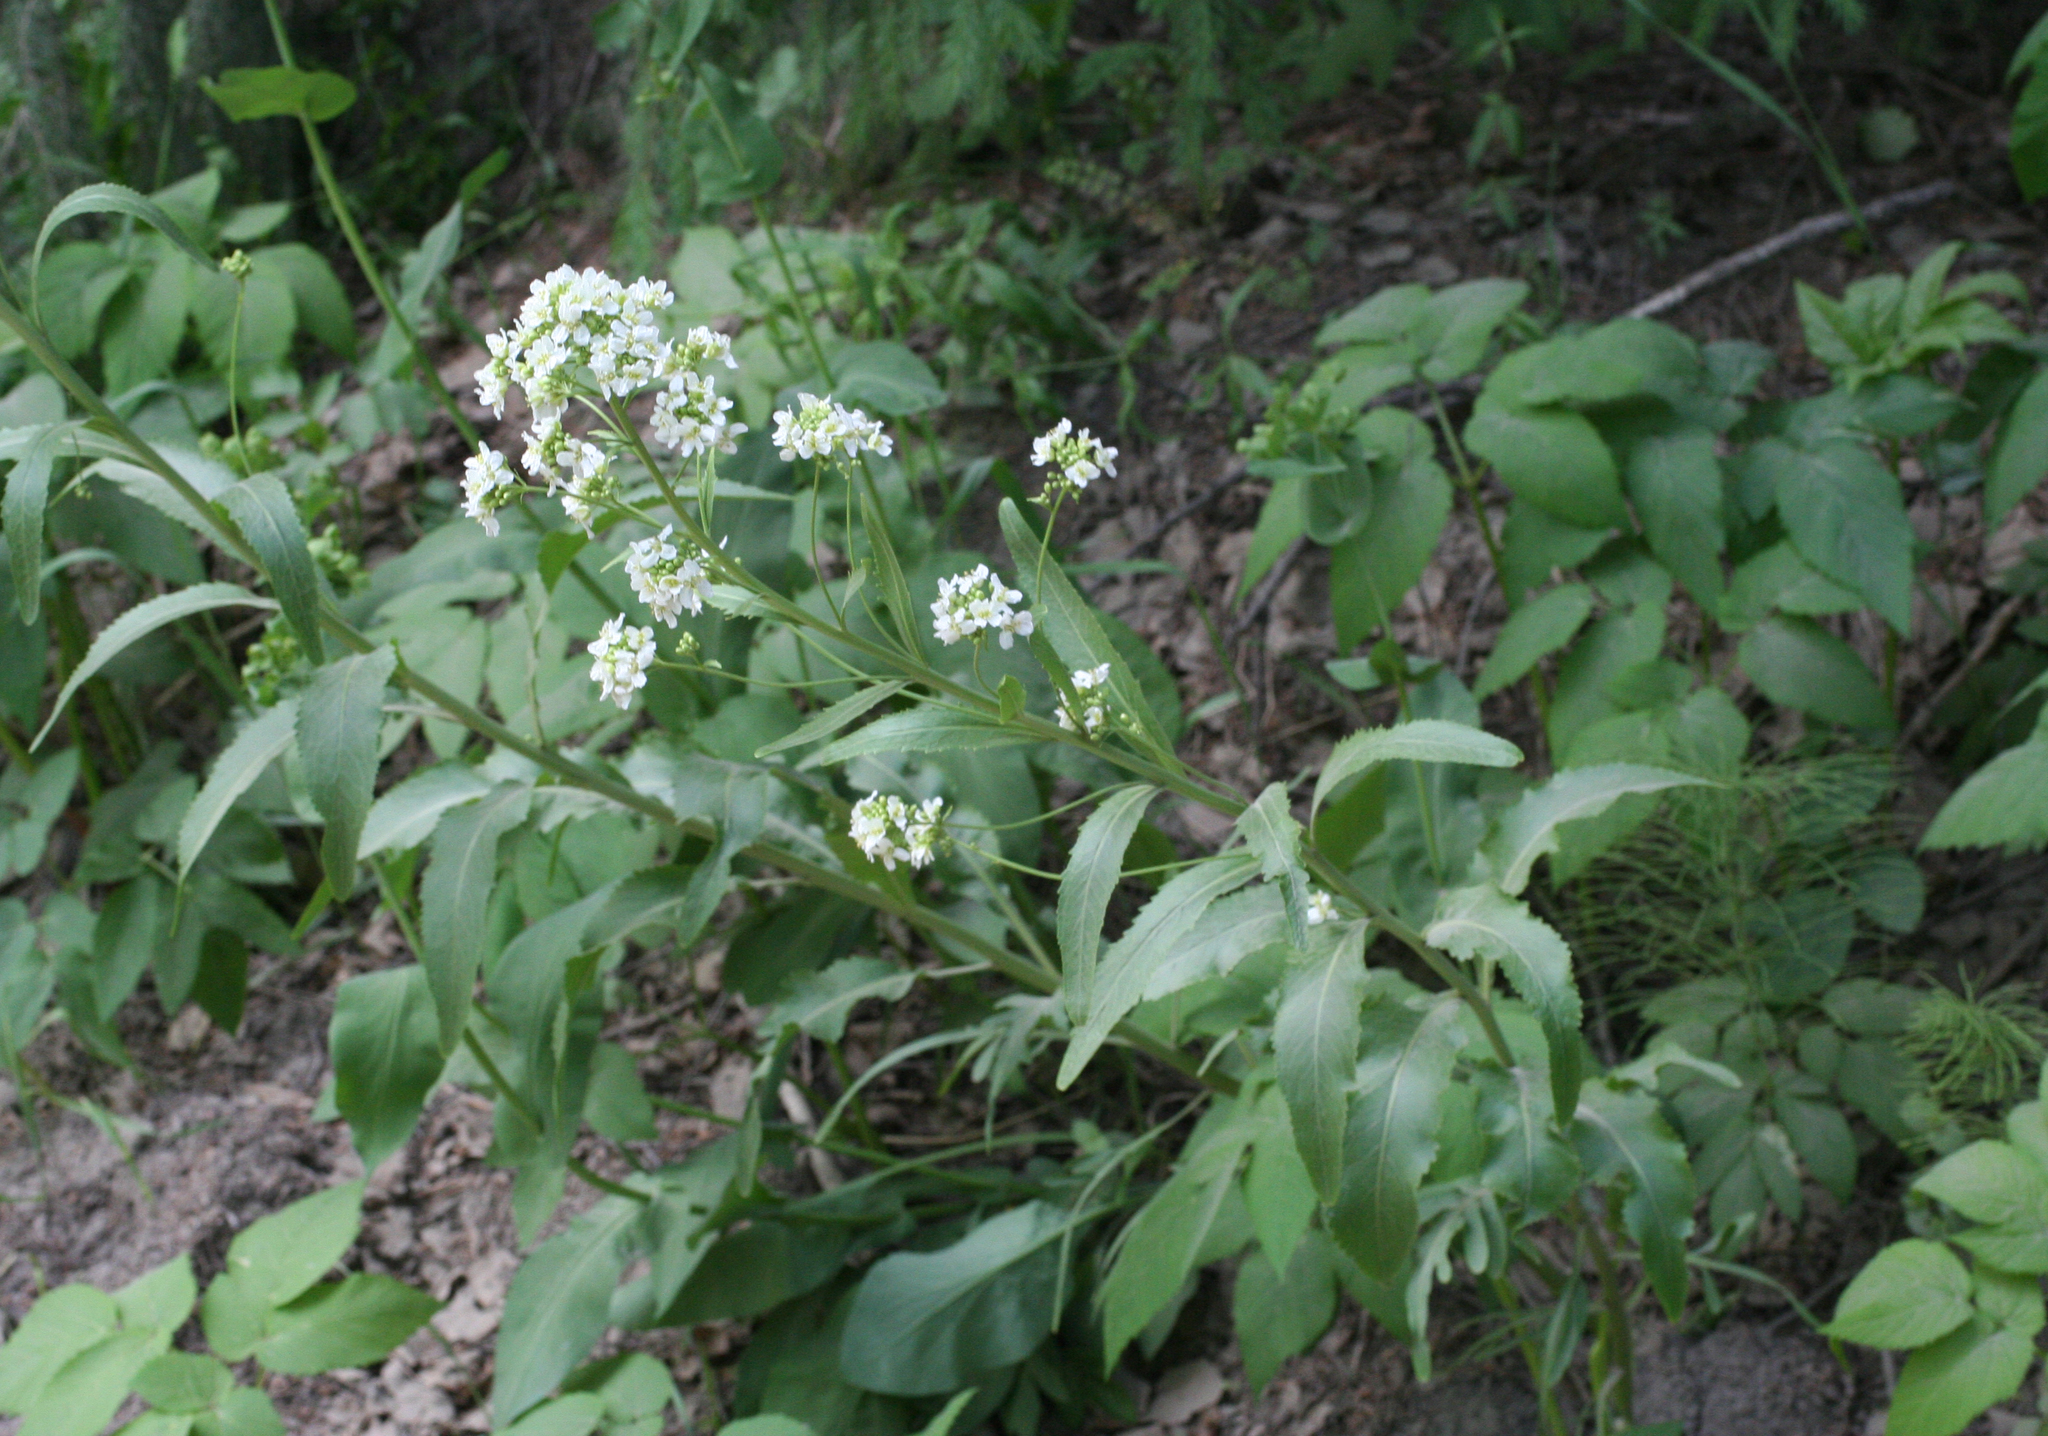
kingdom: Plantae
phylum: Tracheophyta
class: Magnoliopsida
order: Brassicales
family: Brassicaceae
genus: Armoracia
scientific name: Armoracia rusticana
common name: Horseradish
